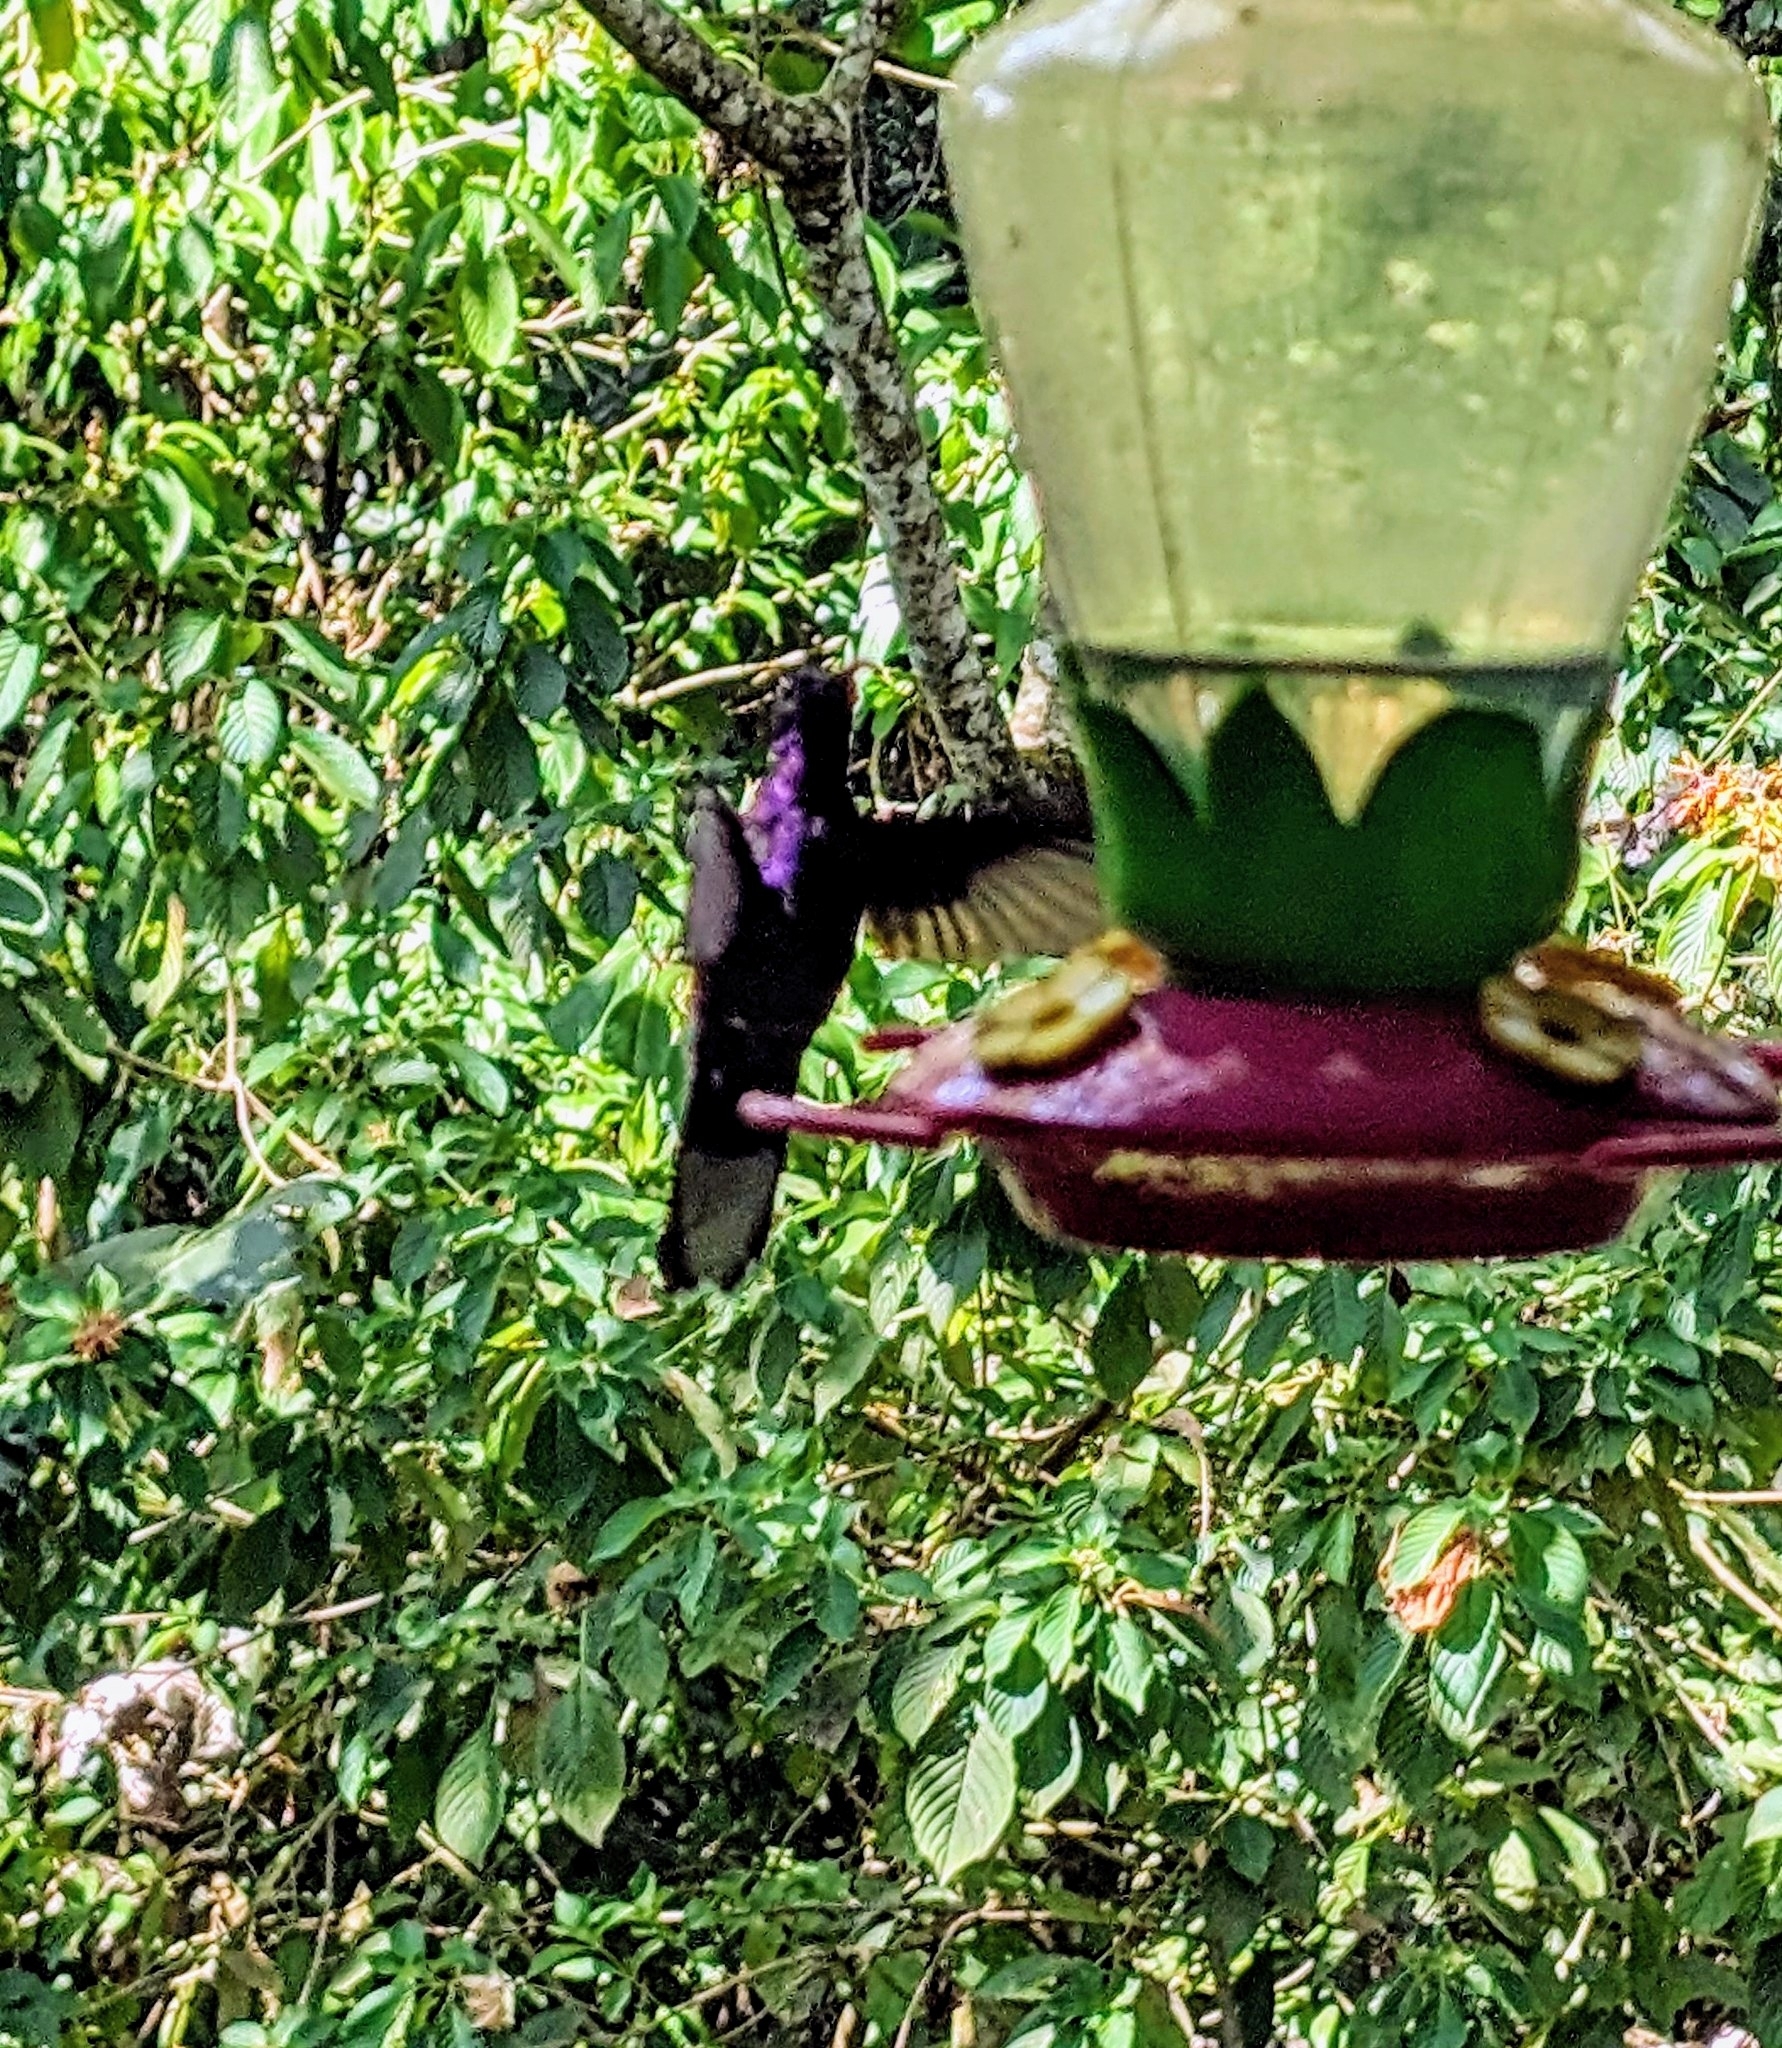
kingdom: Animalia
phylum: Chordata
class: Aves
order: Apodiformes
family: Trochilidae
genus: Campylopterus
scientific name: Campylopterus hemileucurus
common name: Violet sabrewing
